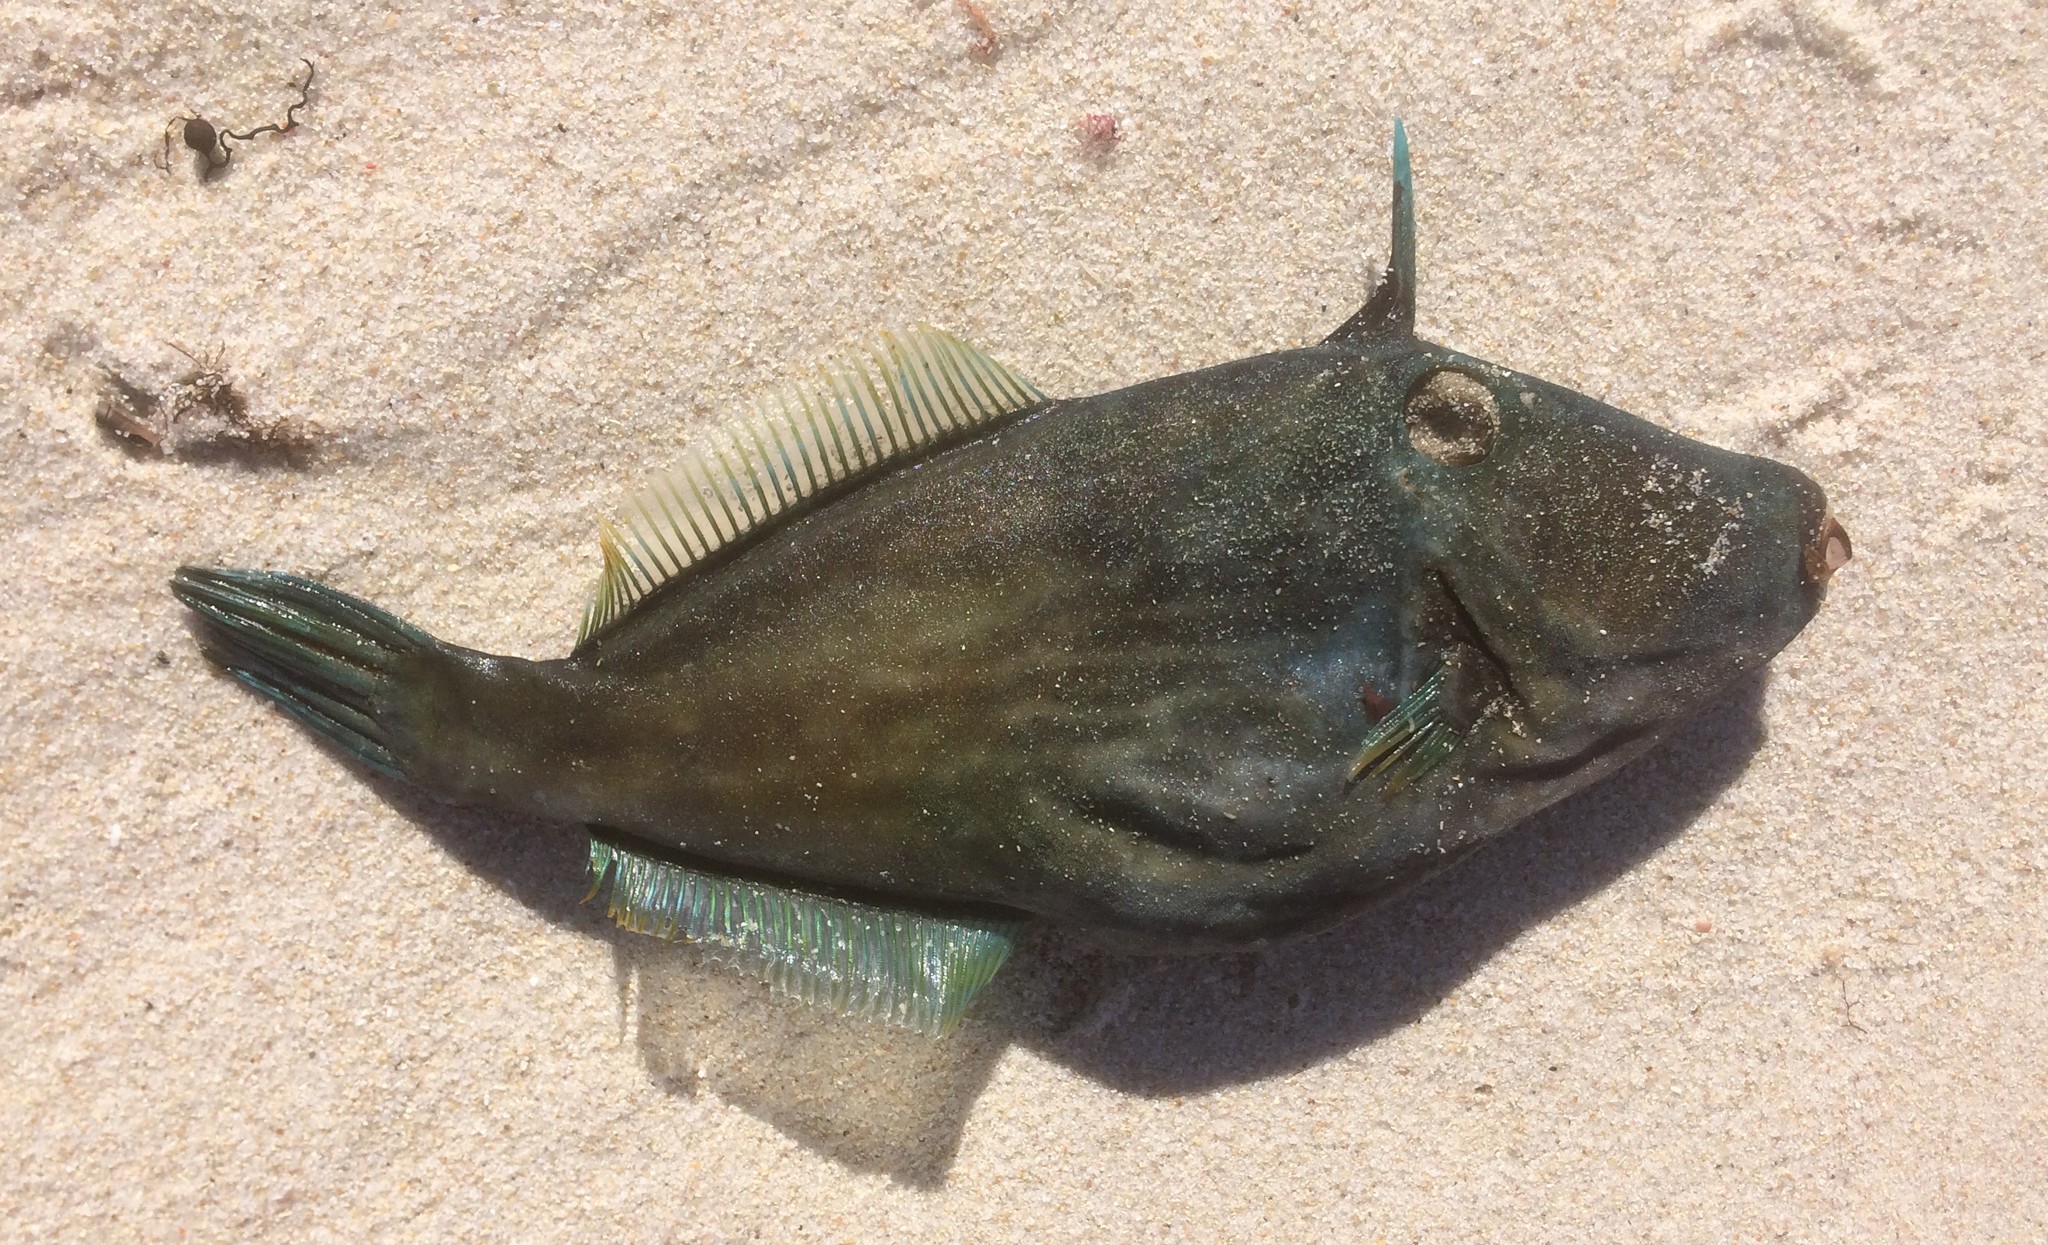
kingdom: Animalia
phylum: Chordata
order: Tetraodontiformes
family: Monacanthidae
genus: Meuschenia
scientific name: Meuschenia galii
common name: Bluelined leatherjacket
